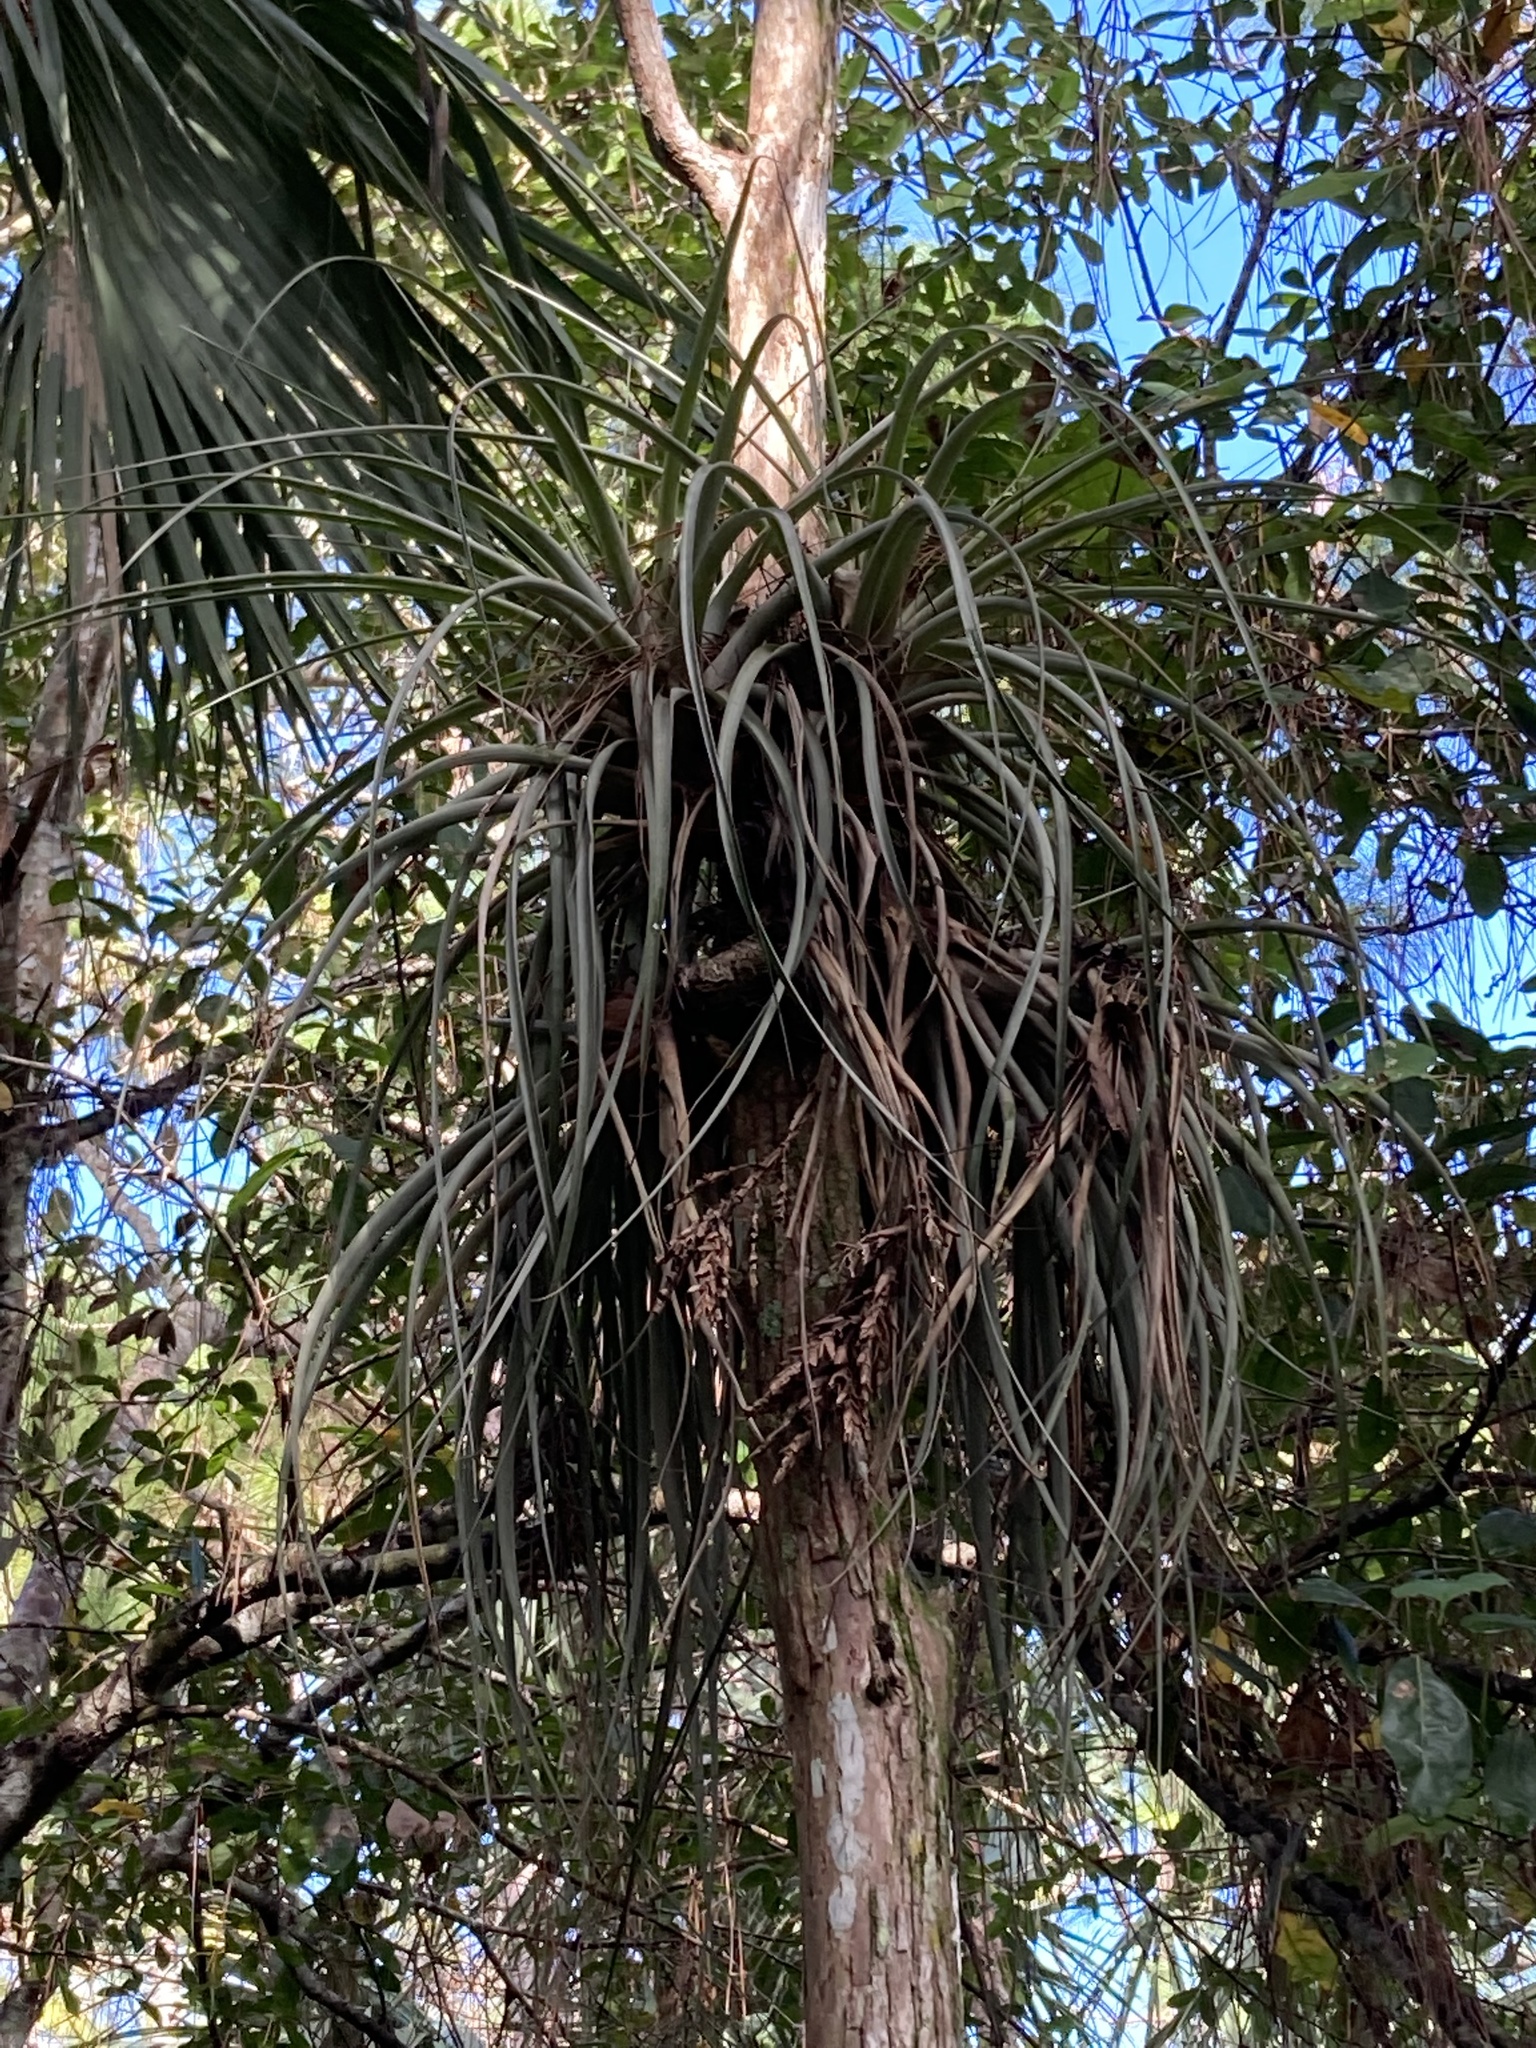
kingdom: Plantae
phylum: Tracheophyta
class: Liliopsida
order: Poales
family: Bromeliaceae
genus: Tillandsia
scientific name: Tillandsia fasciculata
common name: Giant airplant
